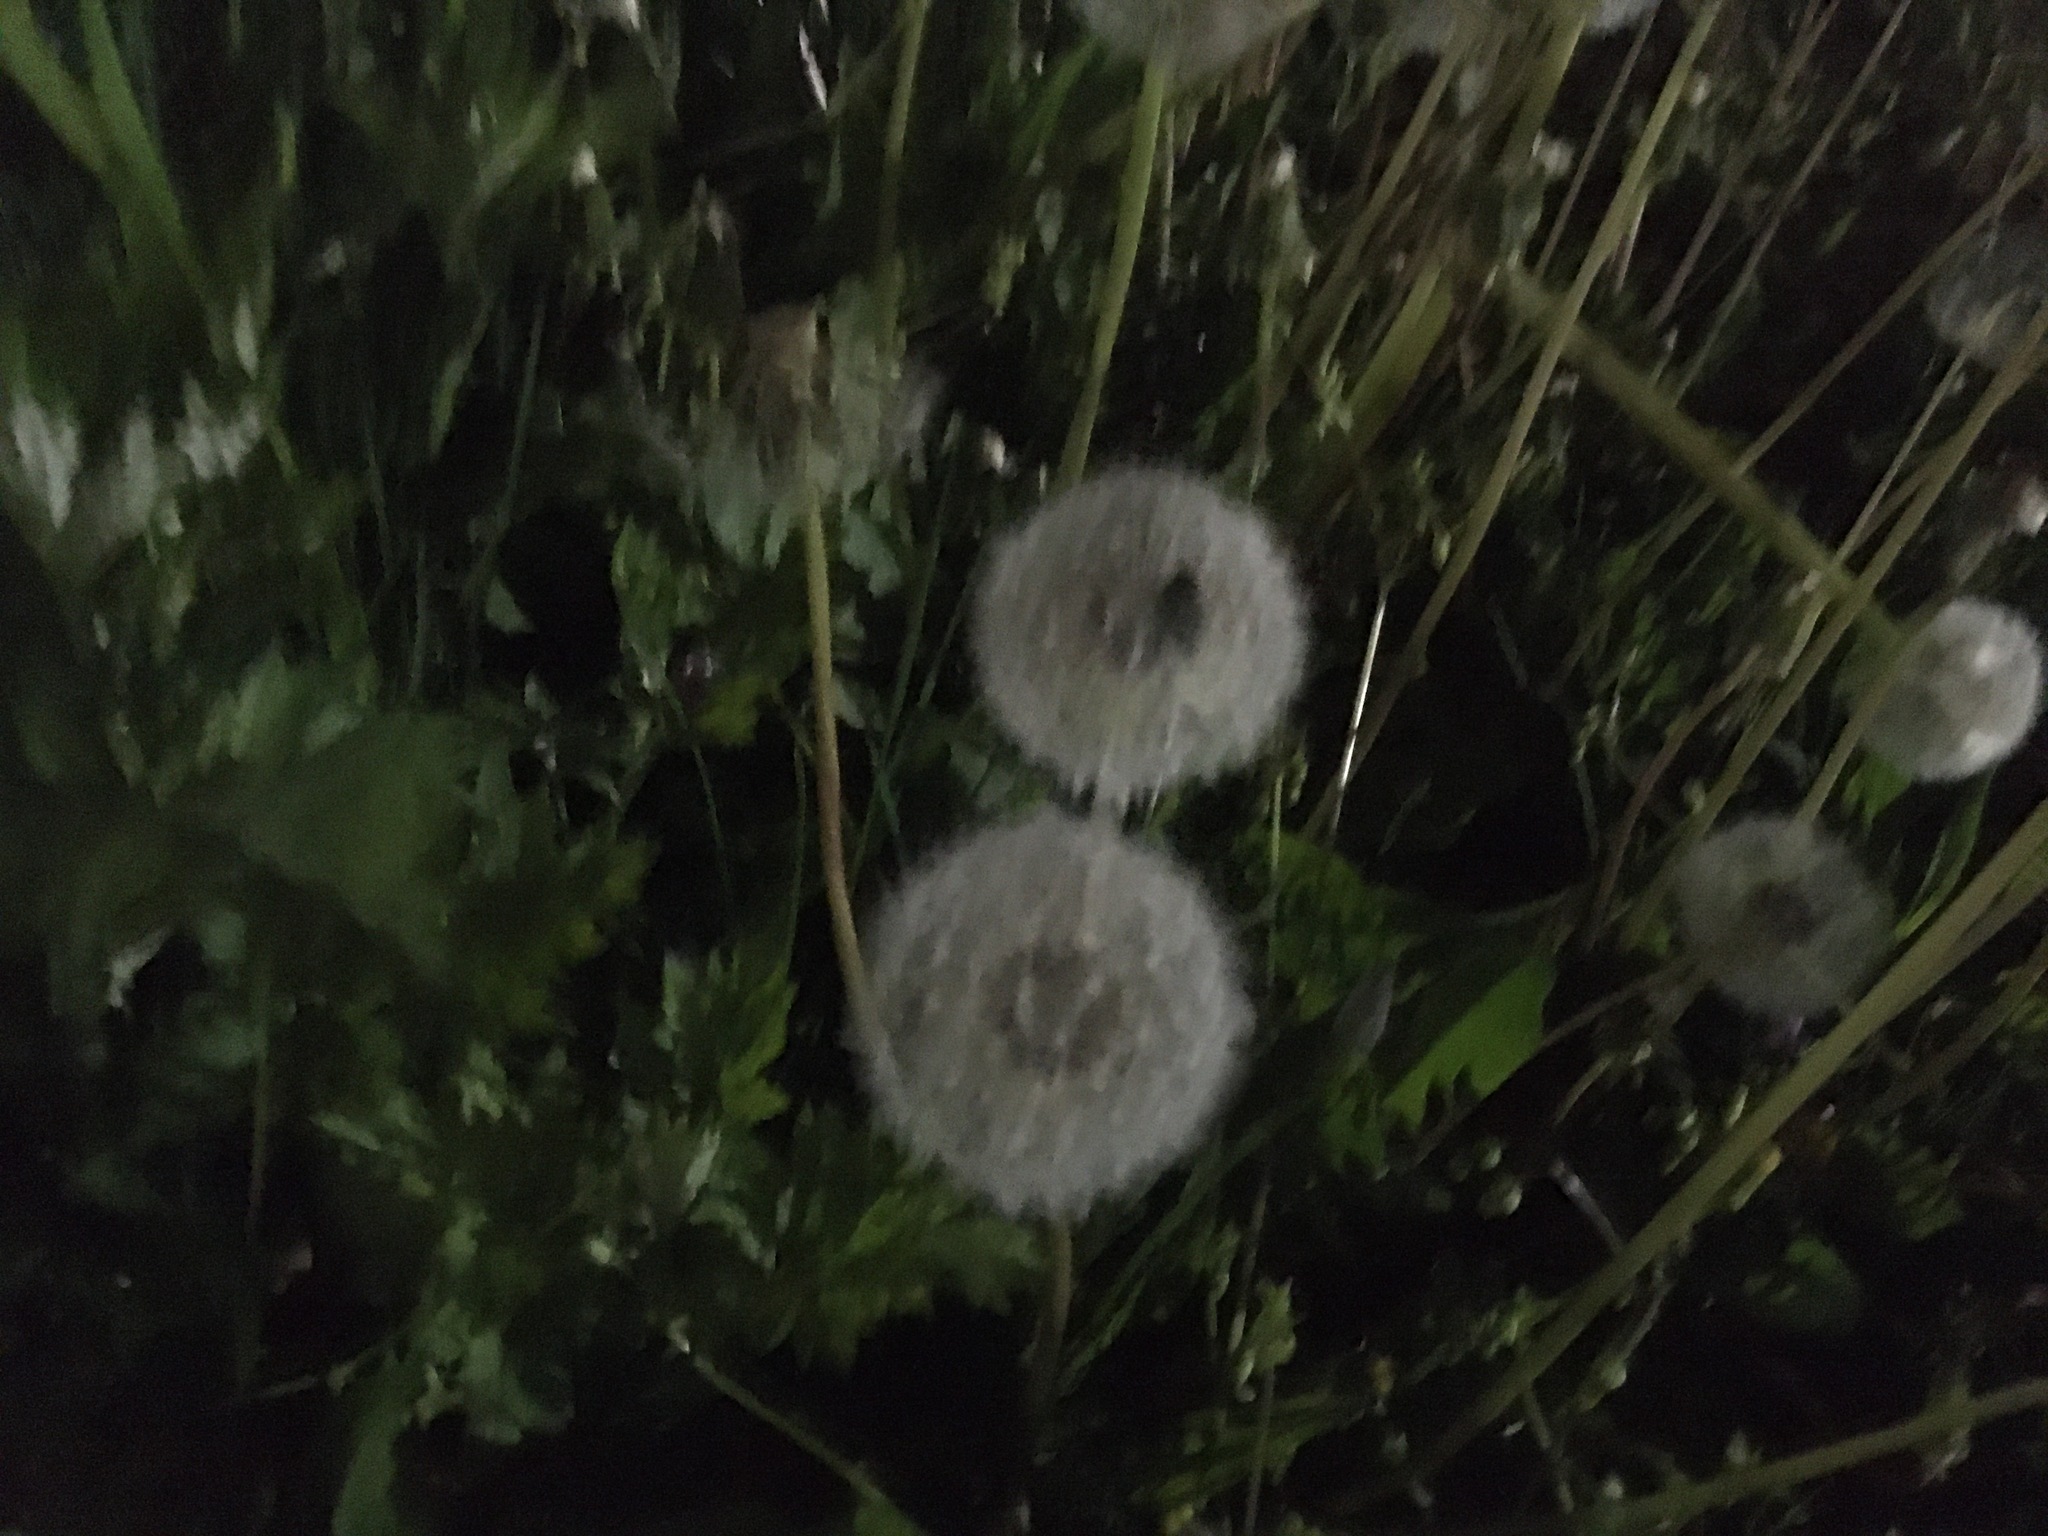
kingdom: Plantae
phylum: Tracheophyta
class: Magnoliopsida
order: Asterales
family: Asteraceae
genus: Taraxacum
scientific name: Taraxacum officinale
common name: Common dandelion
